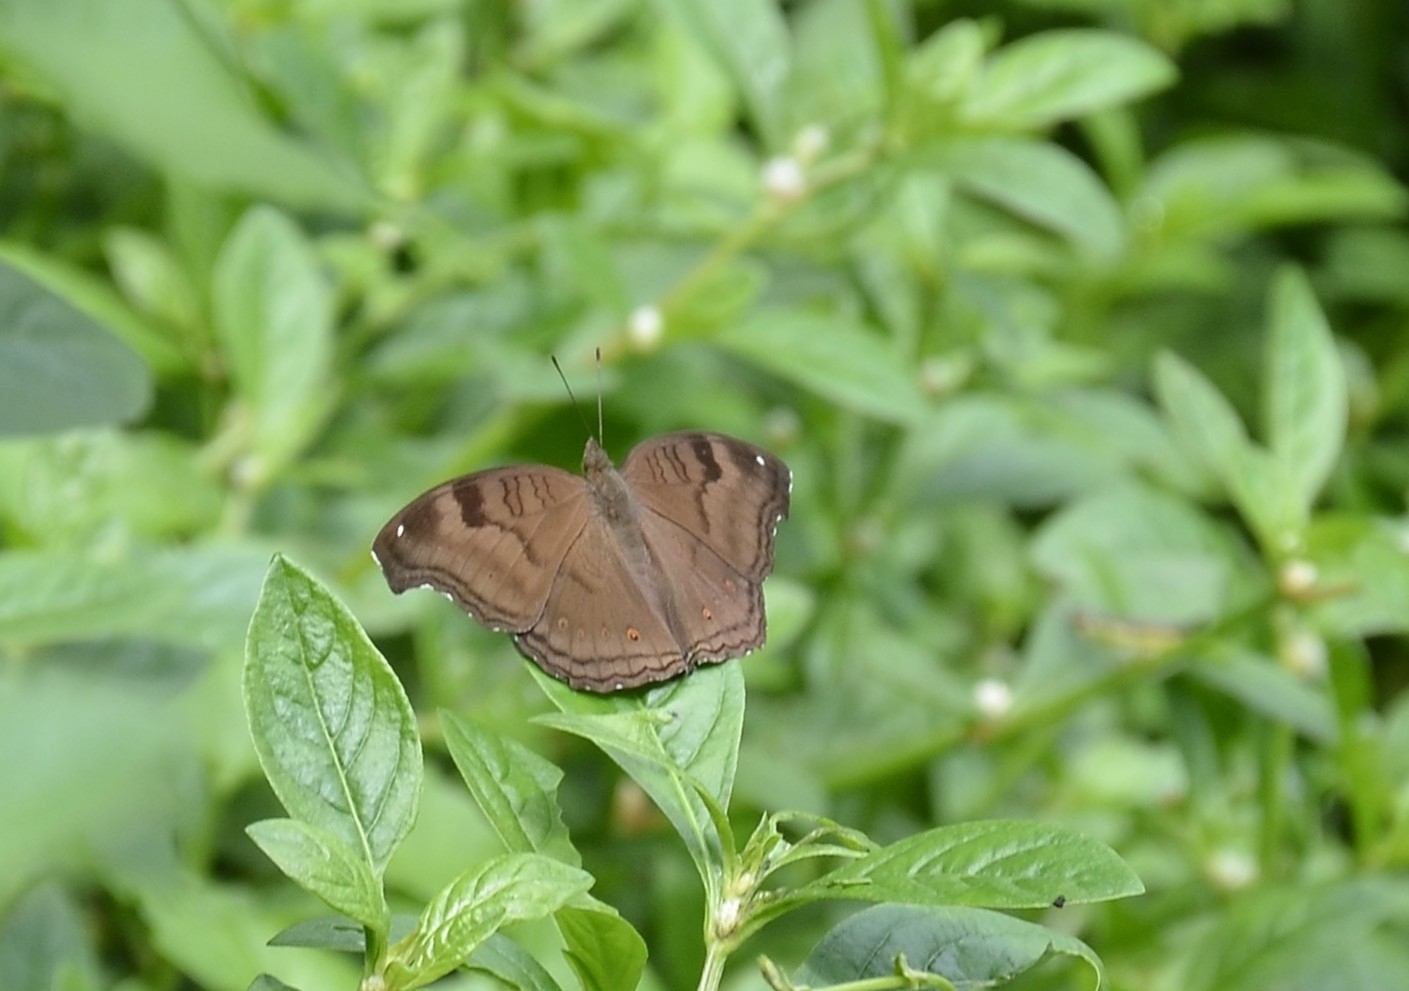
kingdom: Animalia
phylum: Arthropoda
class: Insecta
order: Lepidoptera
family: Nymphalidae
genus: Junonia
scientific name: Junonia iphita
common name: Chocolate pansy
